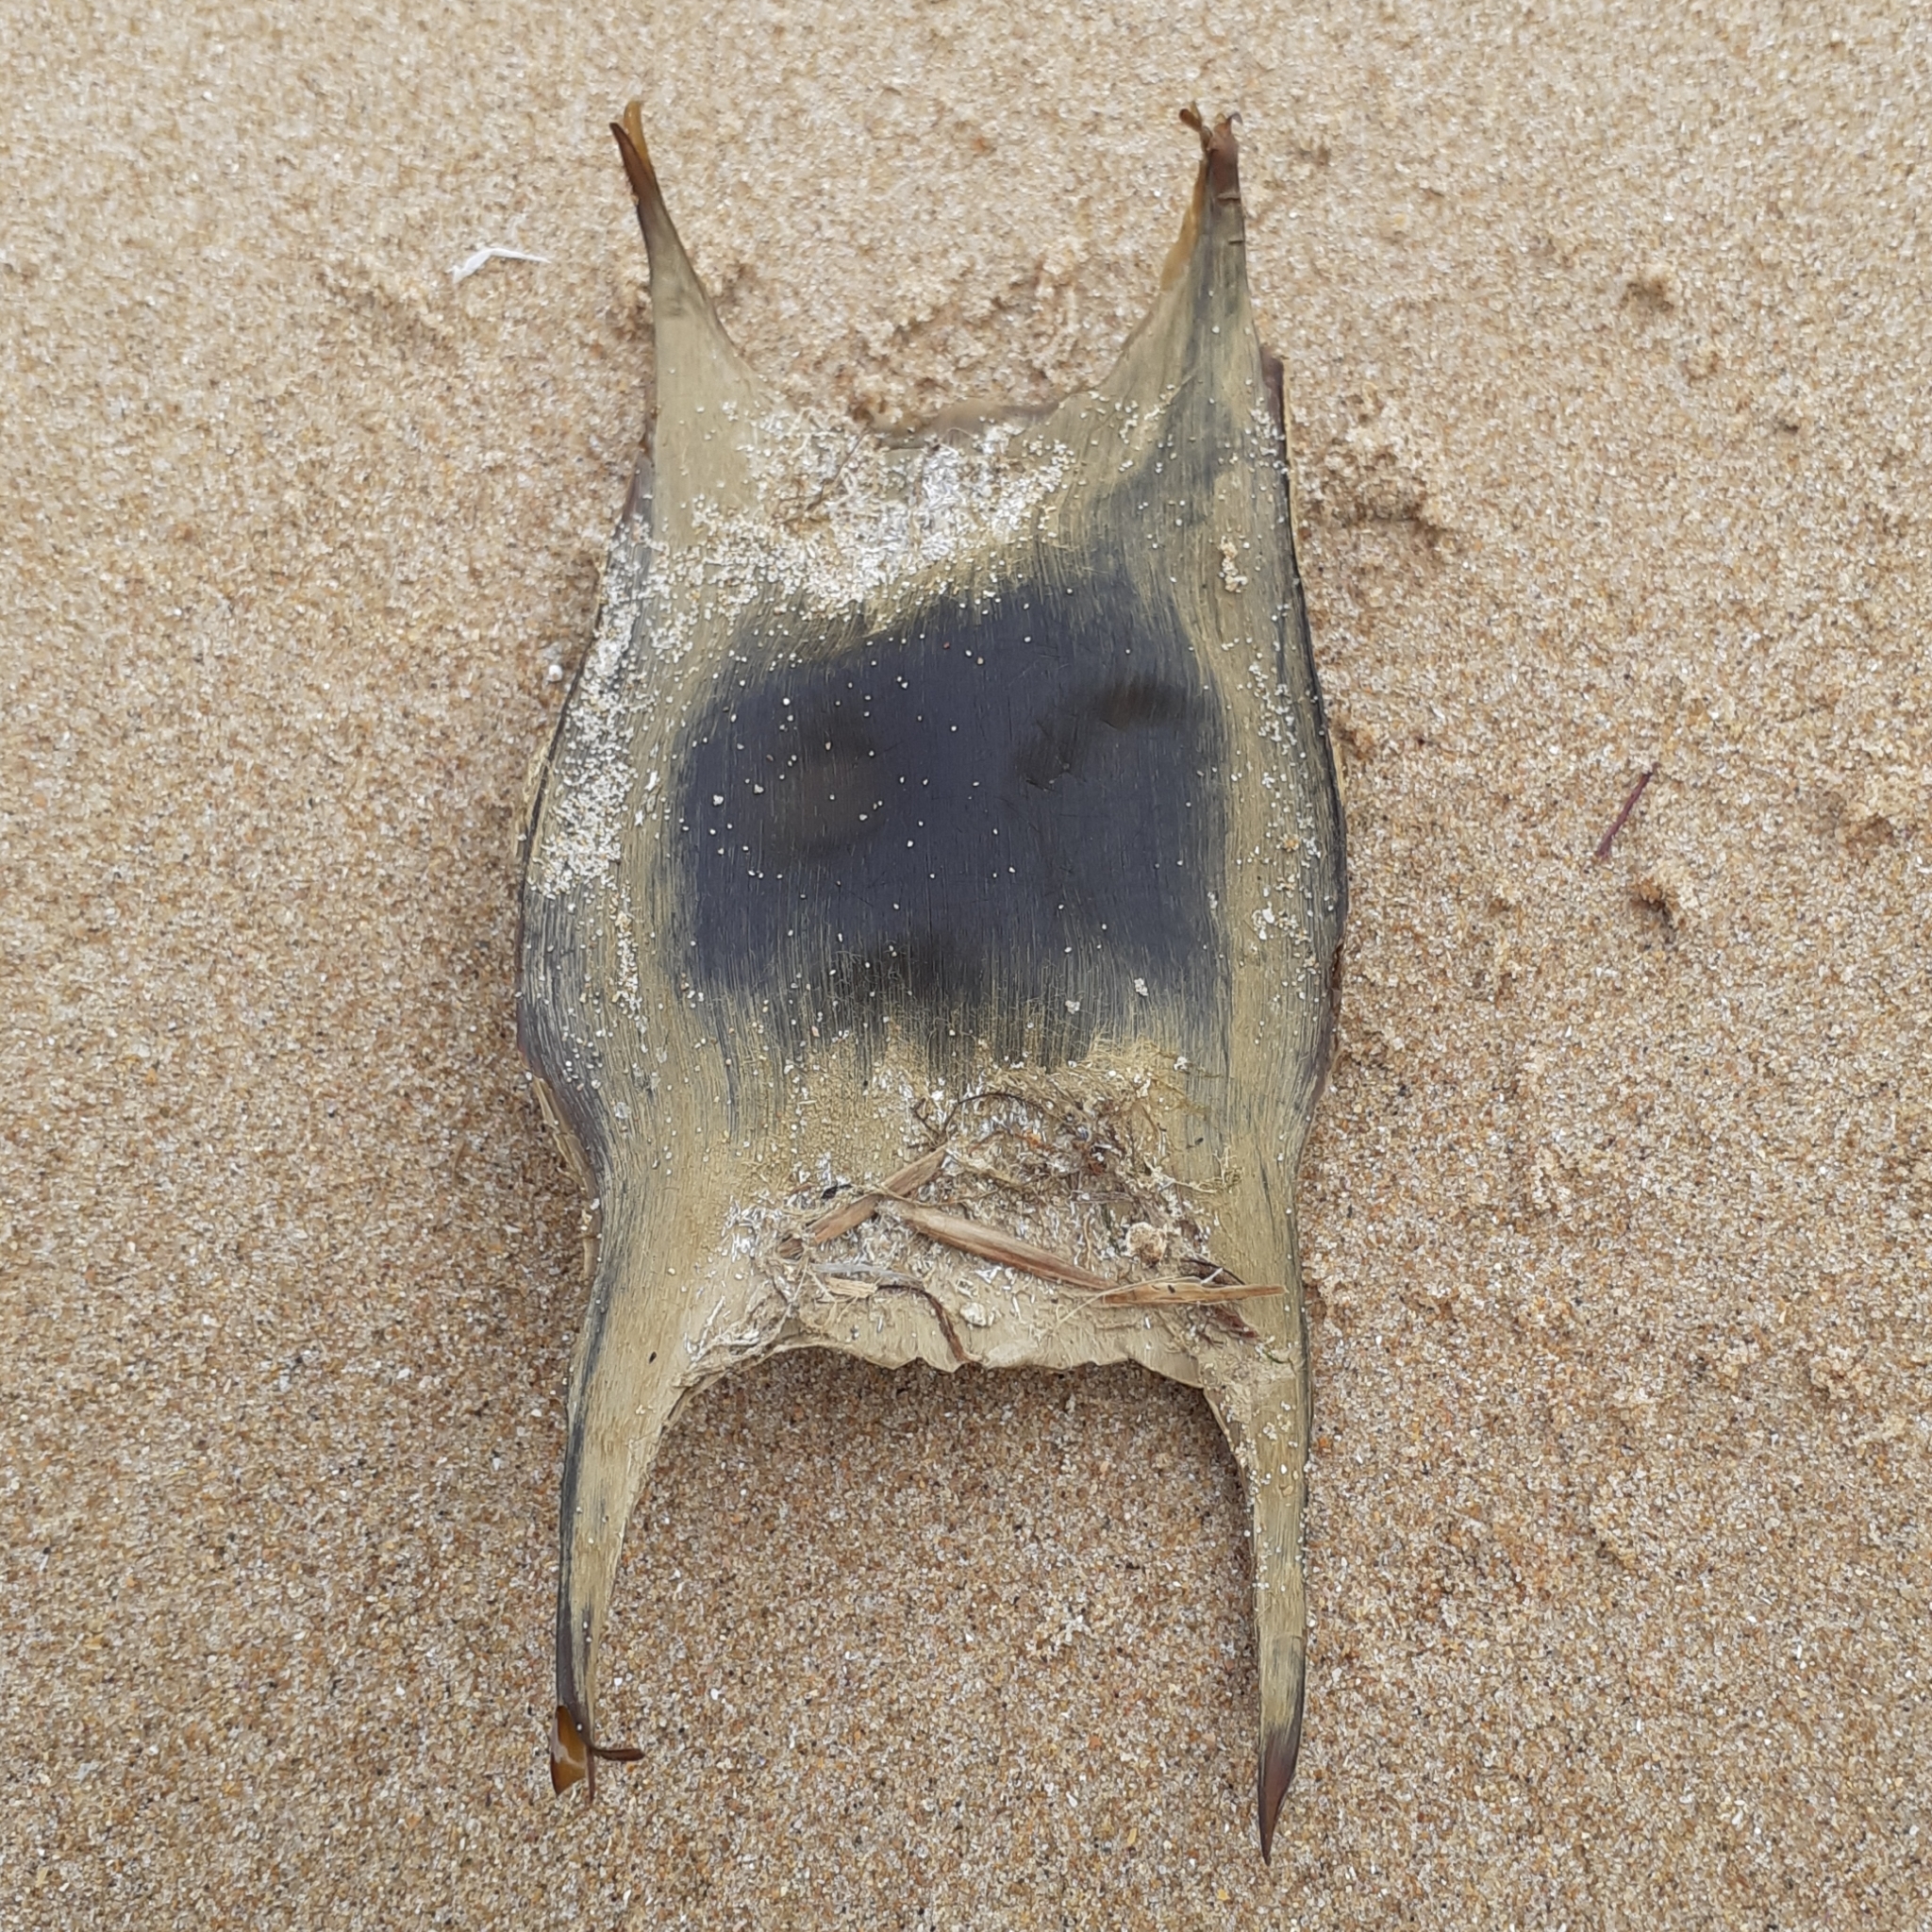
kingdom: Animalia
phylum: Chordata
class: Elasmobranchii
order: Rajiformes
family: Rajidae
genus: Raja
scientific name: Raja clavata
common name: Thornback ray
